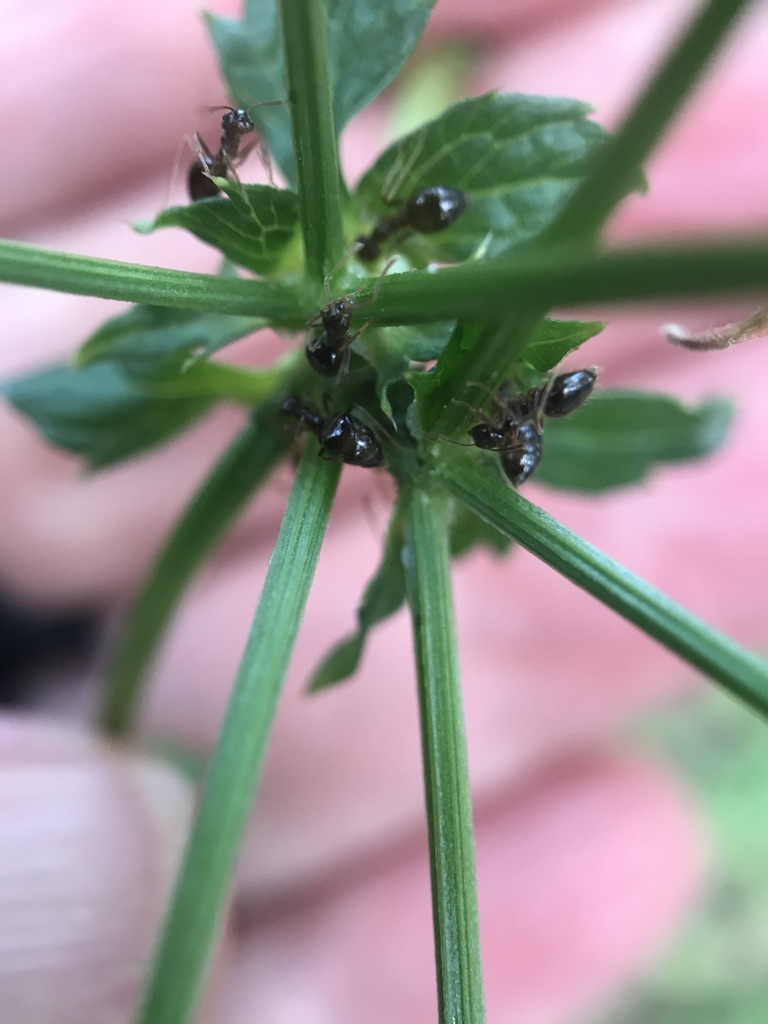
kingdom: Animalia
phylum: Arthropoda
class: Insecta
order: Hymenoptera
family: Formicidae
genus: Prenolepis
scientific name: Prenolepis imparis
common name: Small honey ant
